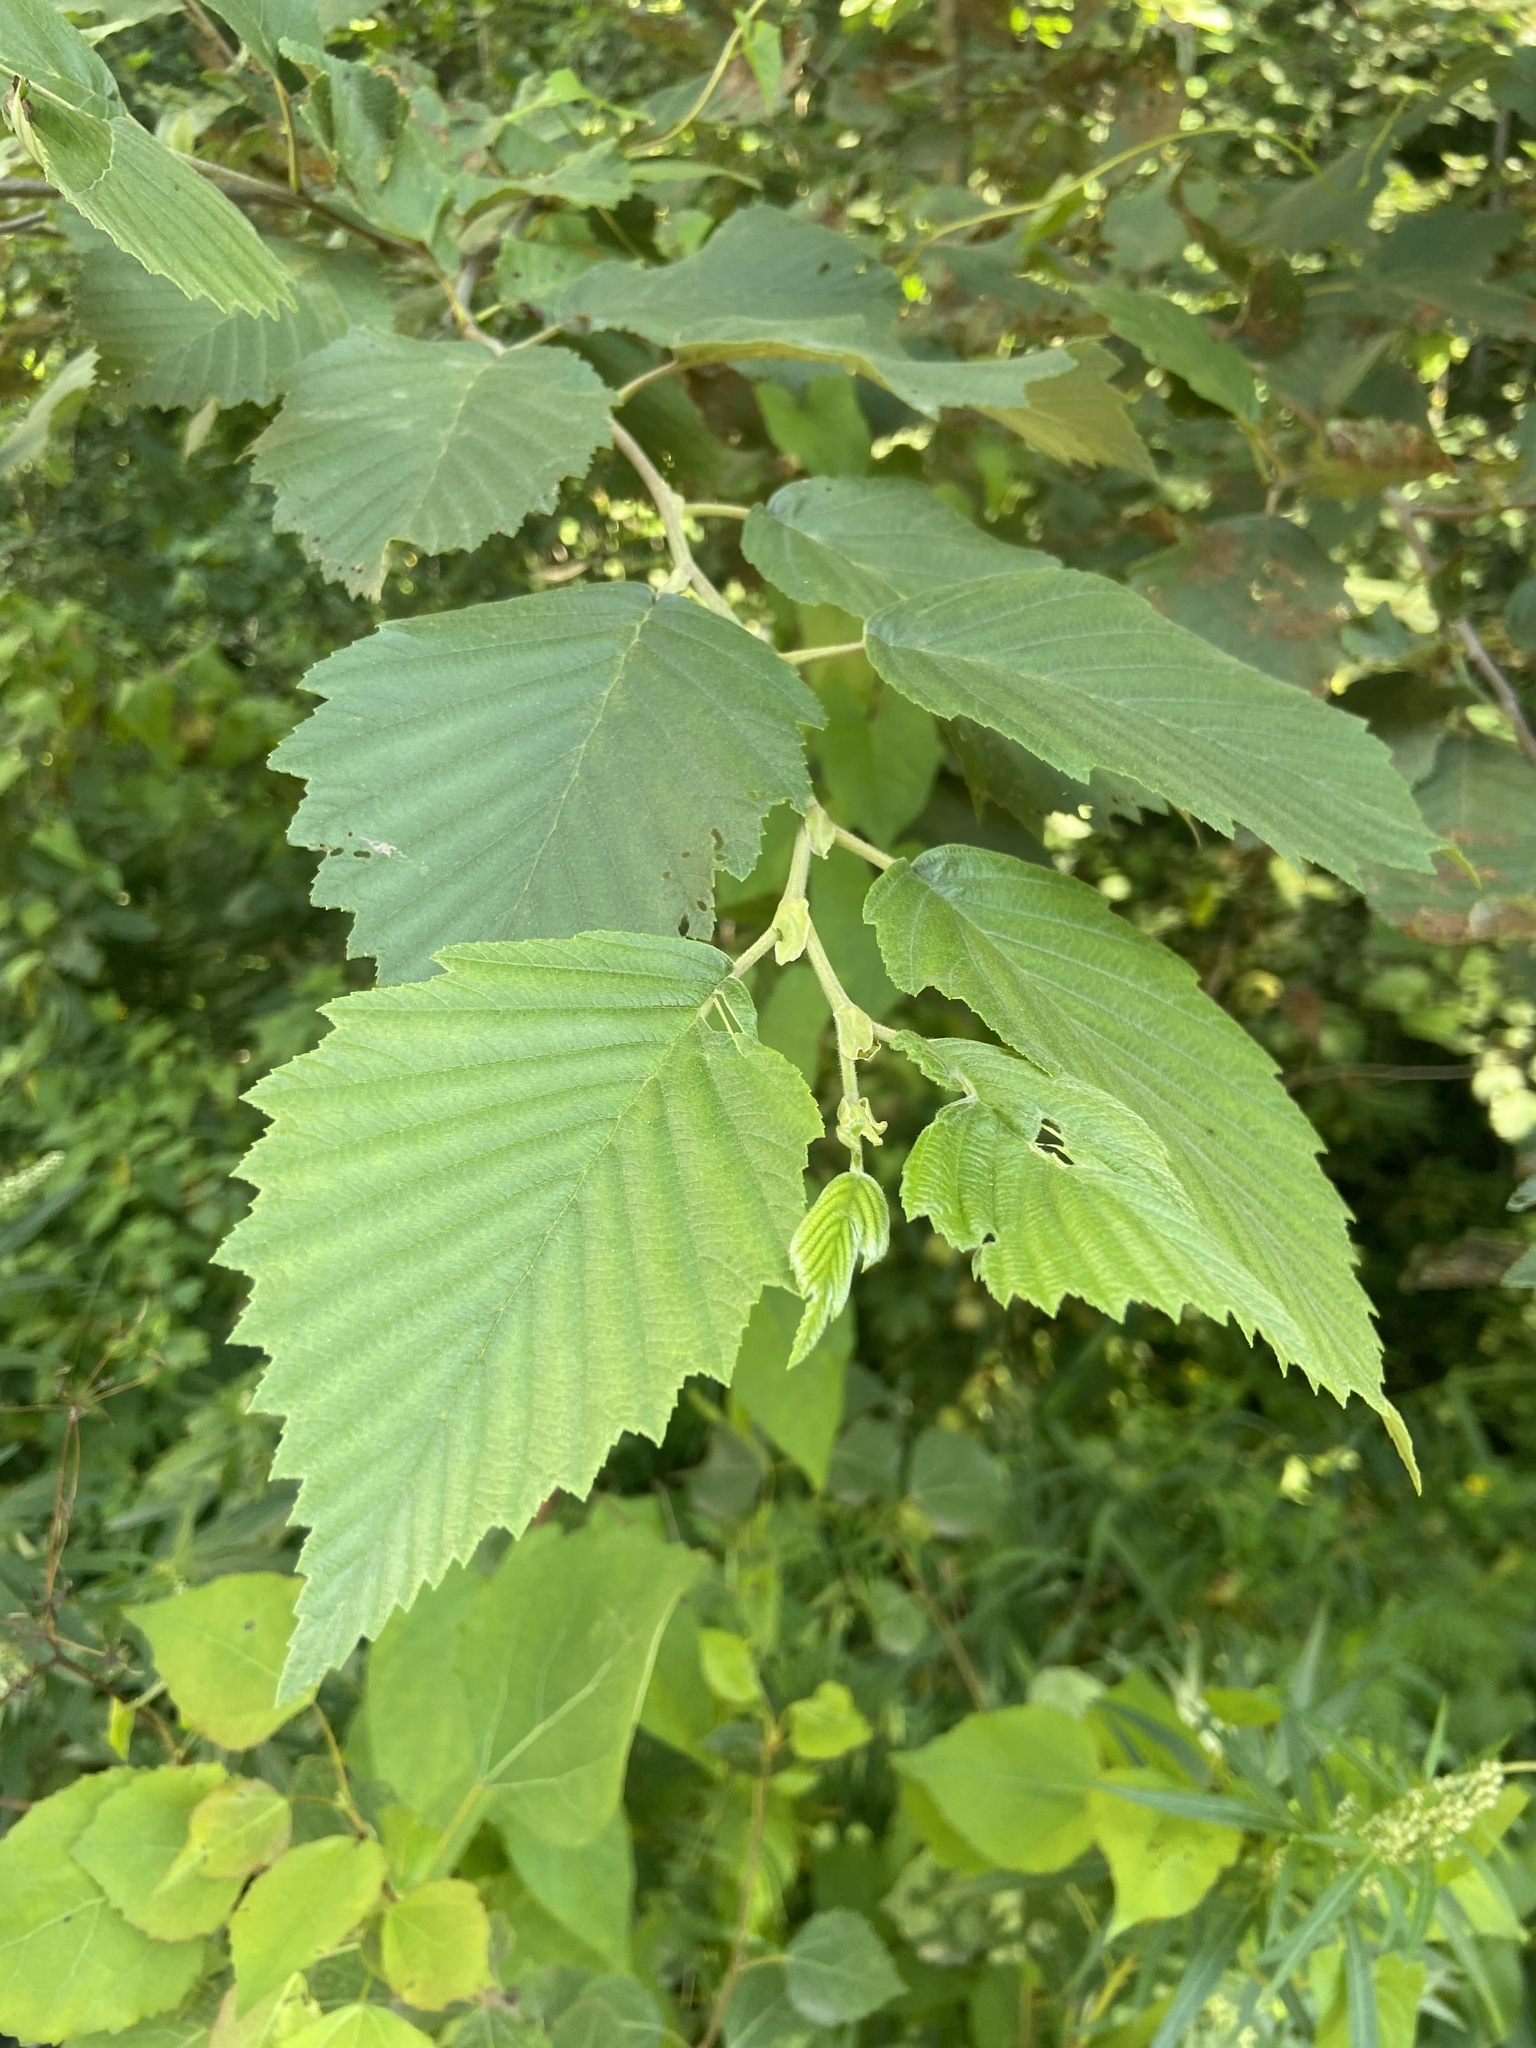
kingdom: Plantae
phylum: Tracheophyta
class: Magnoliopsida
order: Fagales
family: Betulaceae
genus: Alnus
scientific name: Alnus incana
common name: Grey alder
